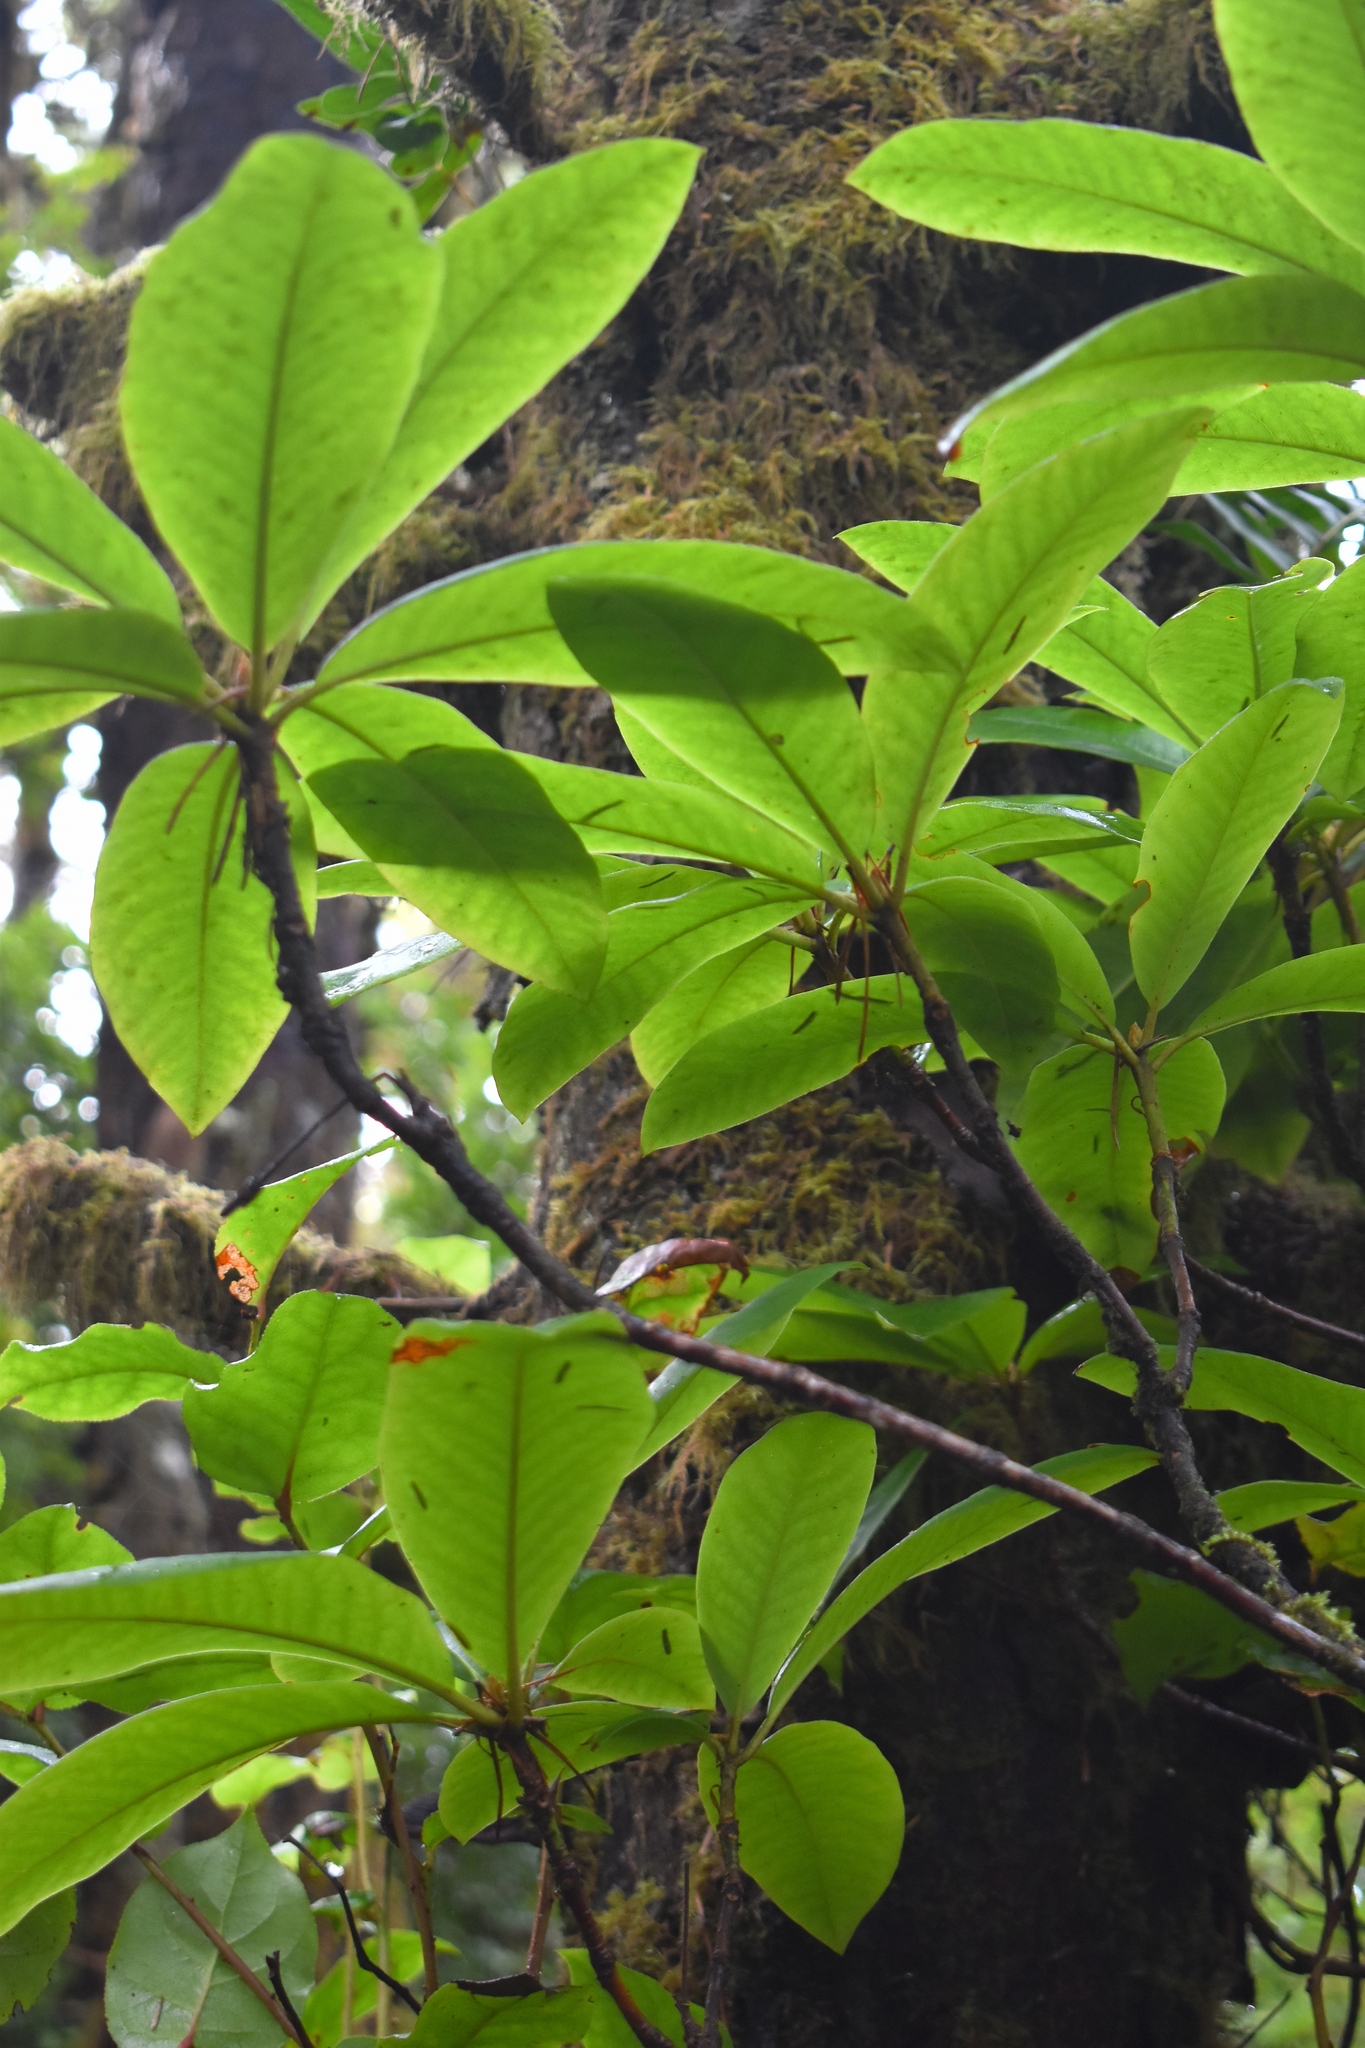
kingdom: Plantae
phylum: Tracheophyta
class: Magnoliopsida
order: Ericales
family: Ericaceae
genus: Rhododendron
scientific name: Rhododendron macrophyllum
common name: California rose bay
